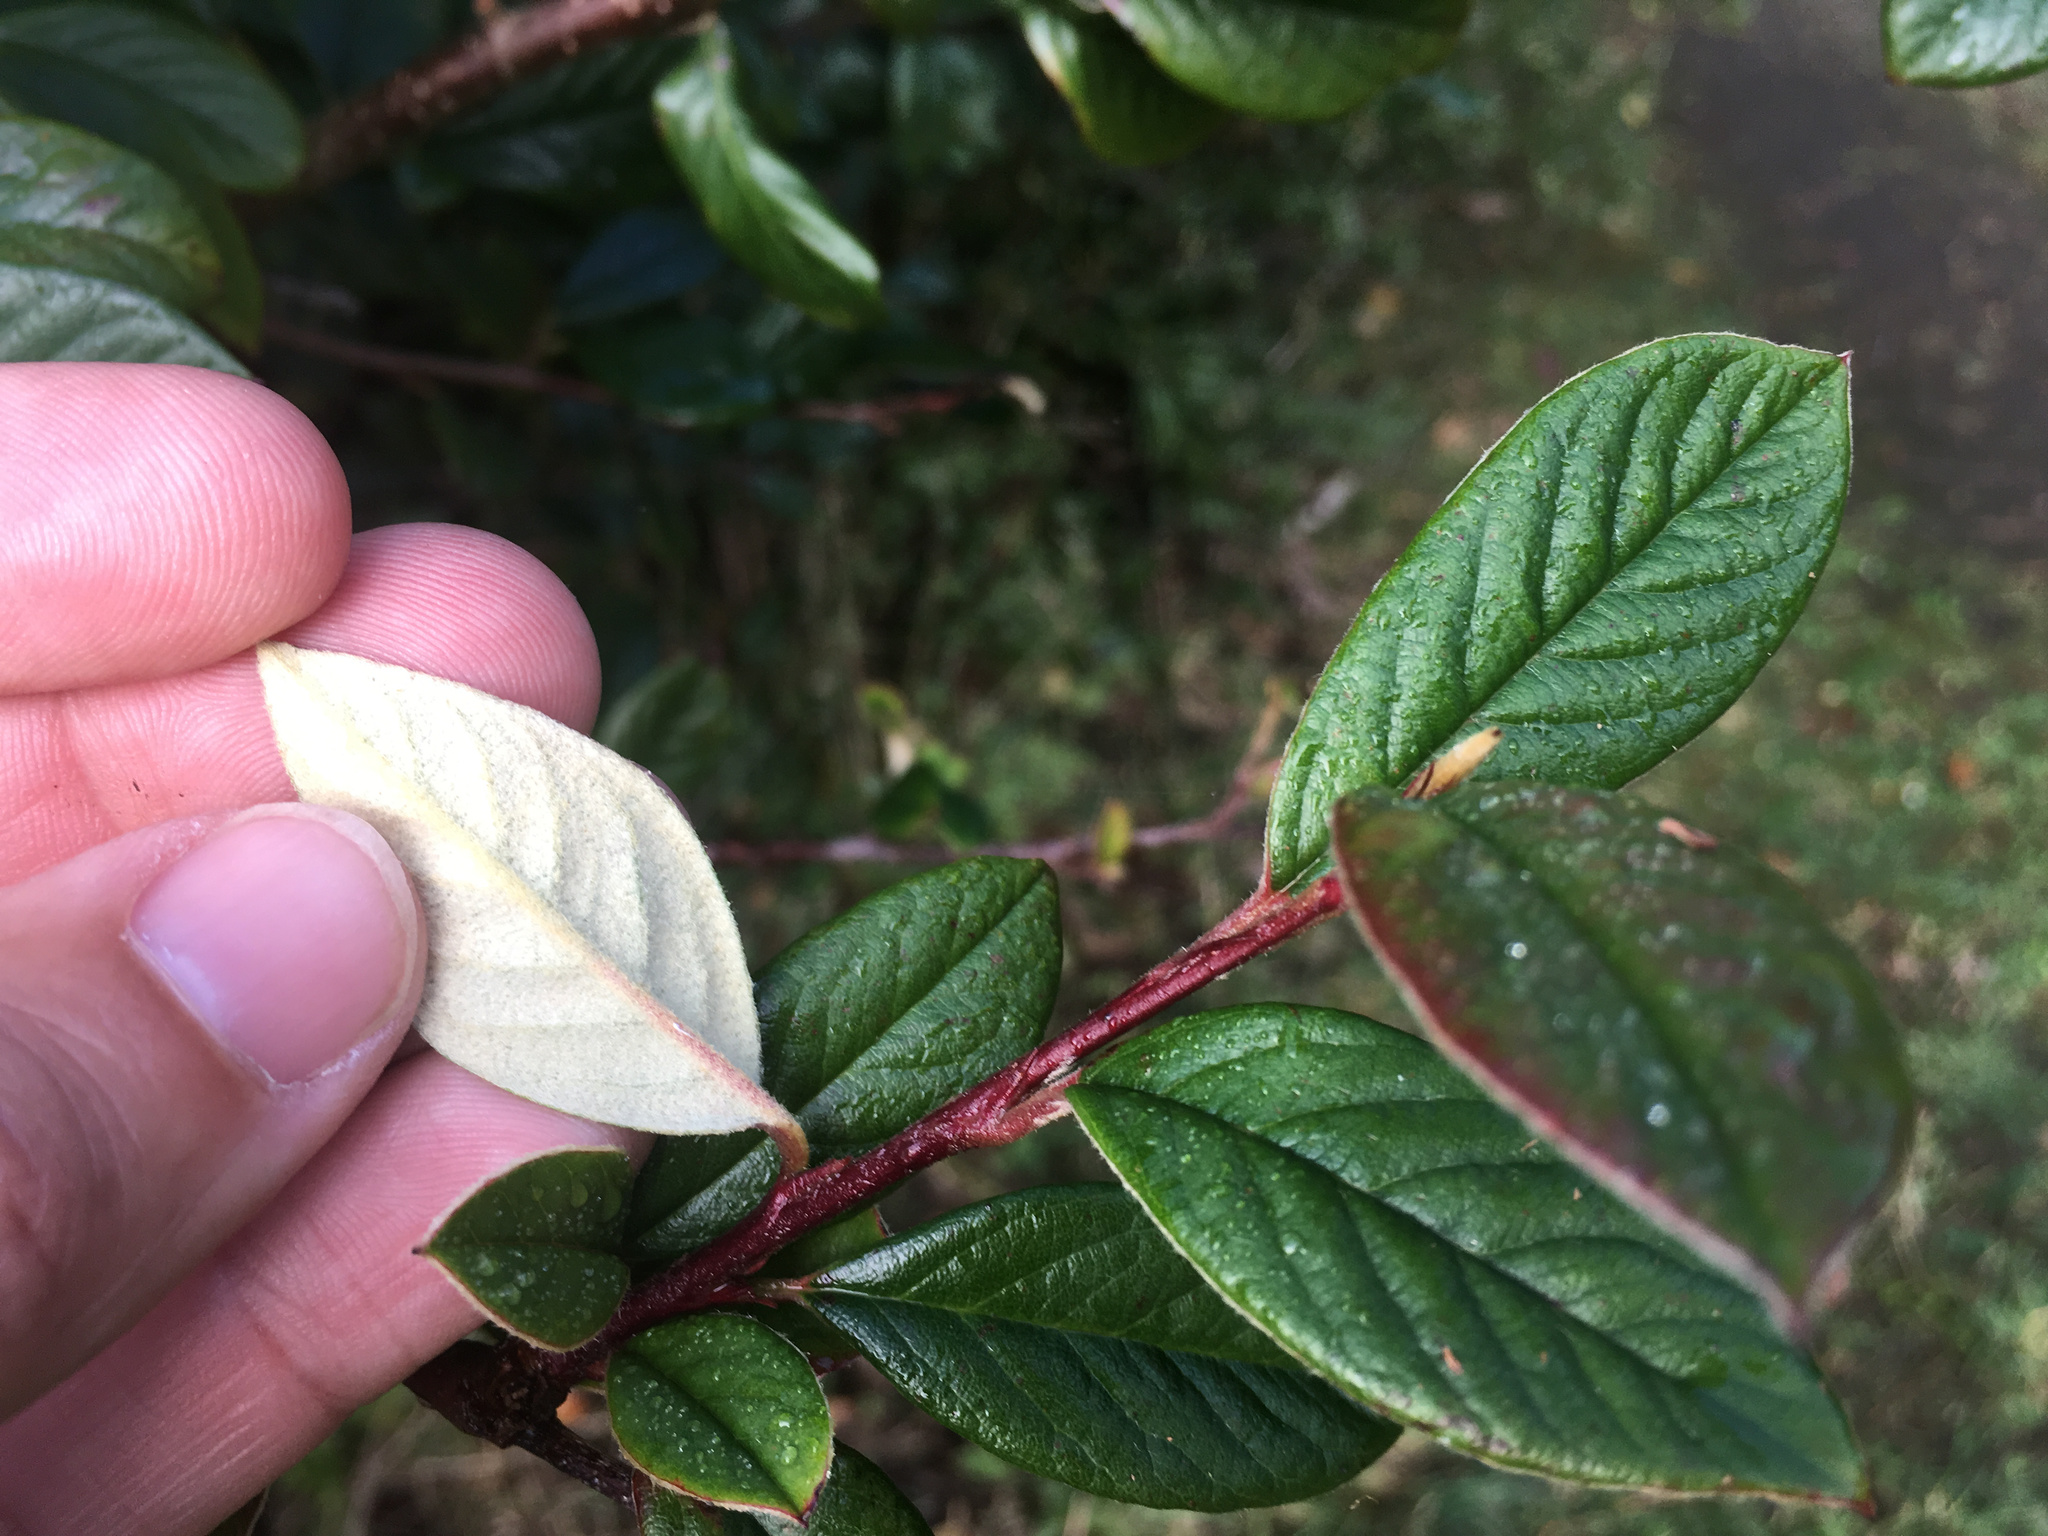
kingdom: Plantae
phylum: Tracheophyta
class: Magnoliopsida
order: Rosales
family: Rosaceae
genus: Cotoneaster
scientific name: Cotoneaster coriaceus
